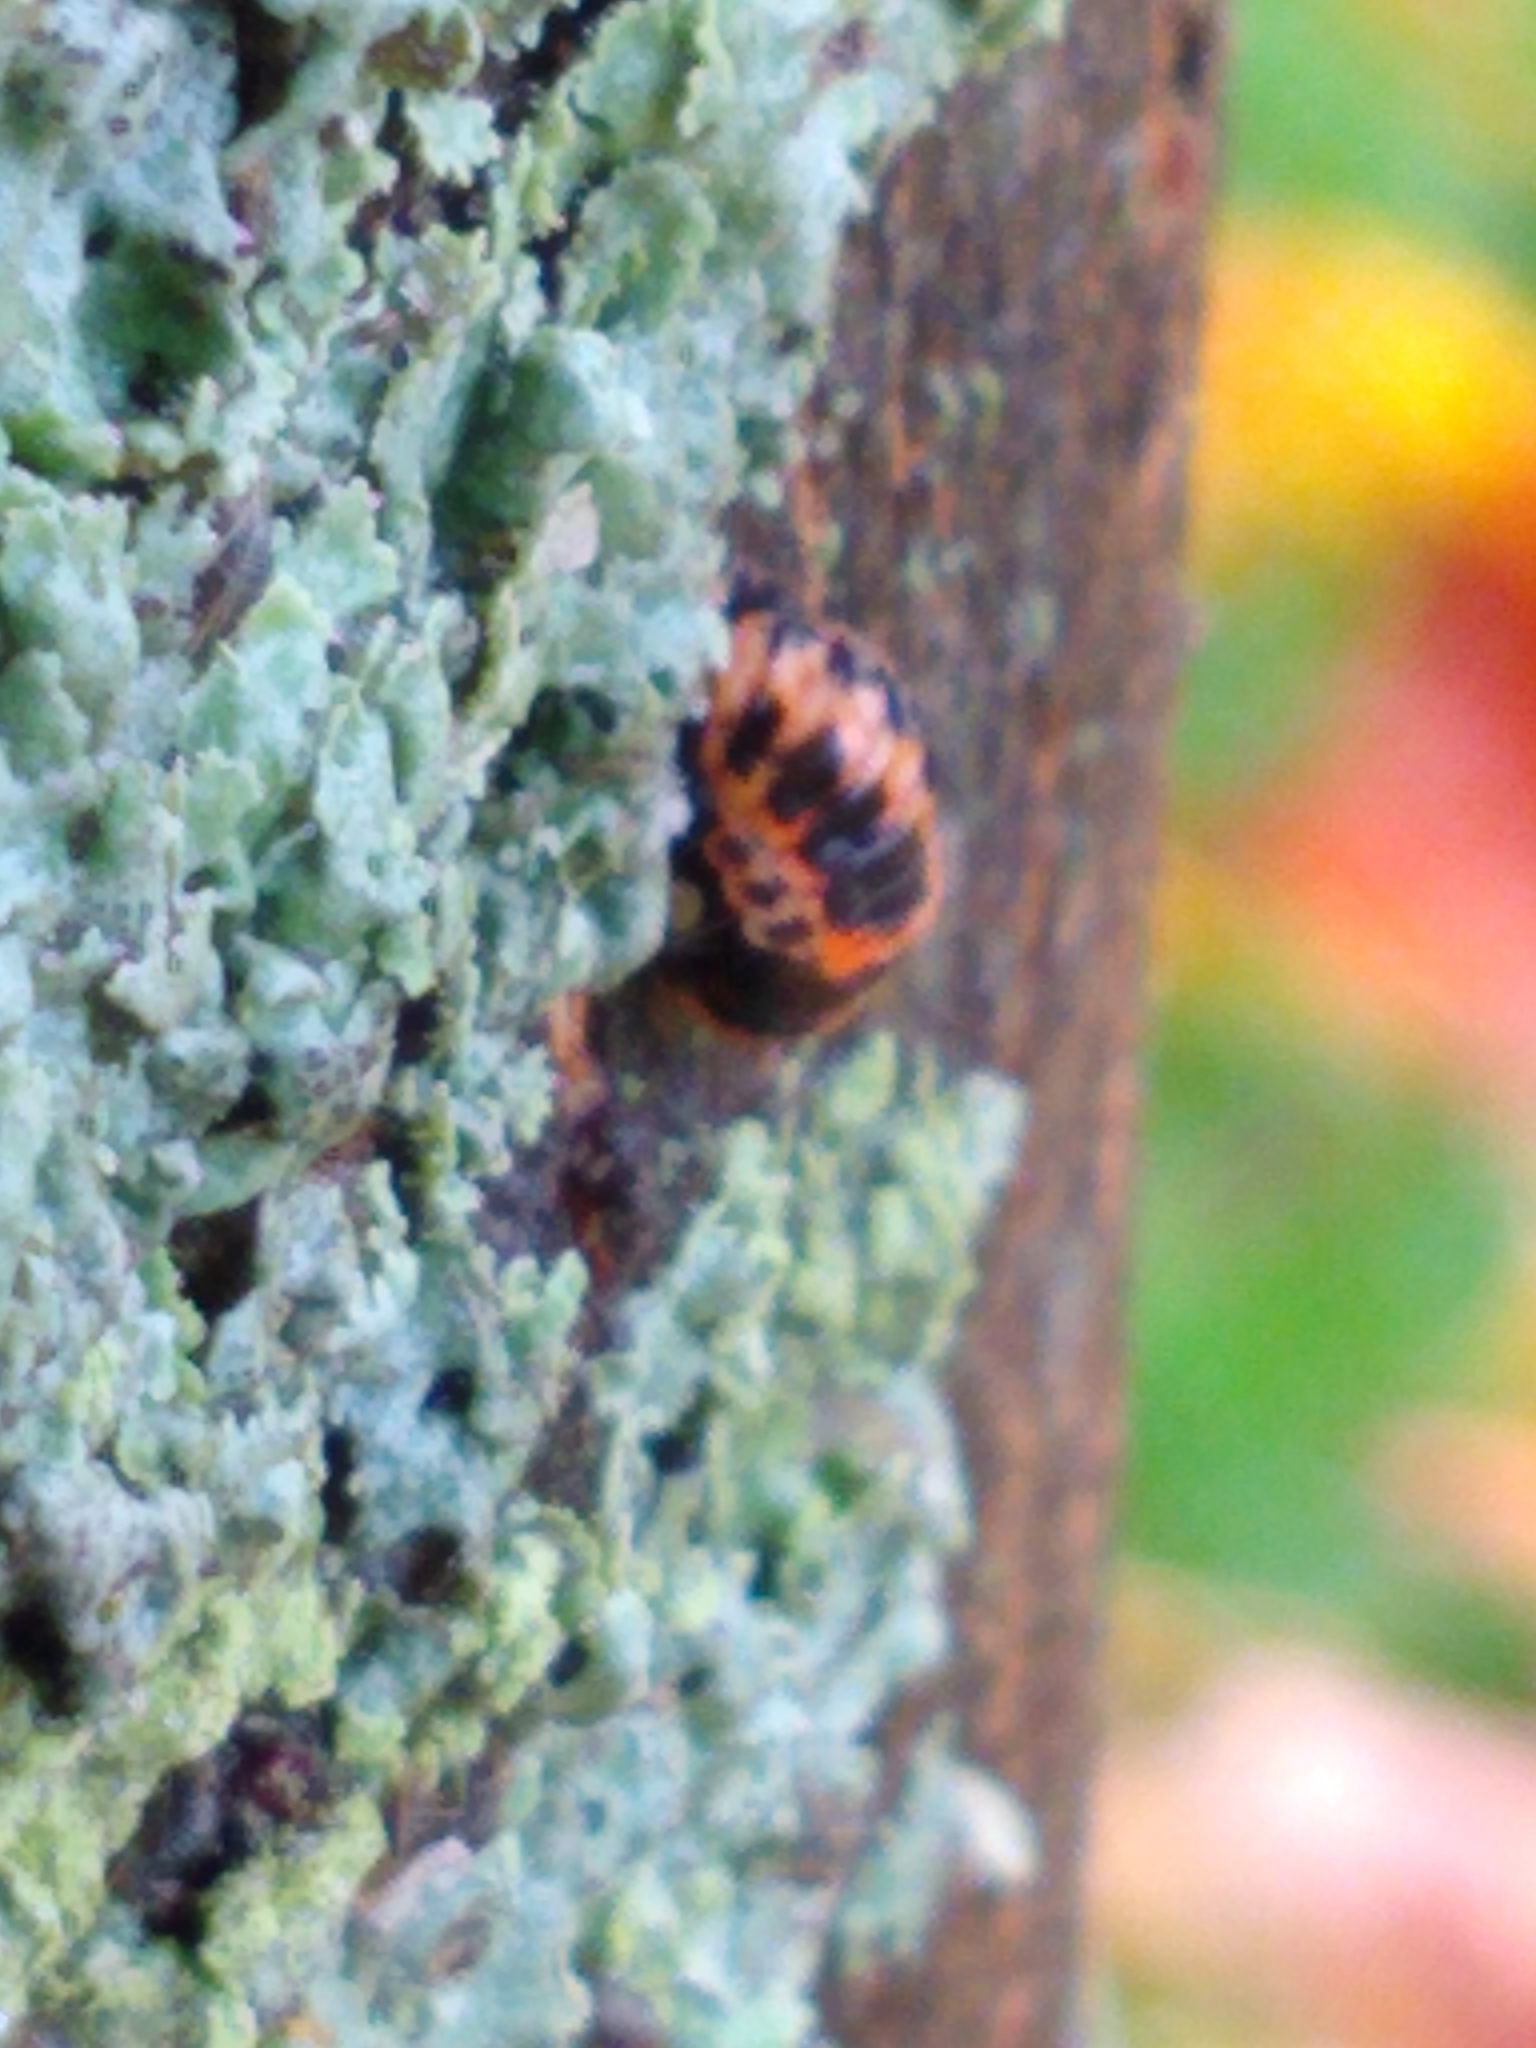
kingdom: Animalia
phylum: Arthropoda
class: Insecta
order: Coleoptera
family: Coccinellidae
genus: Harmonia
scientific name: Harmonia axyridis
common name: Harlequin ladybird
